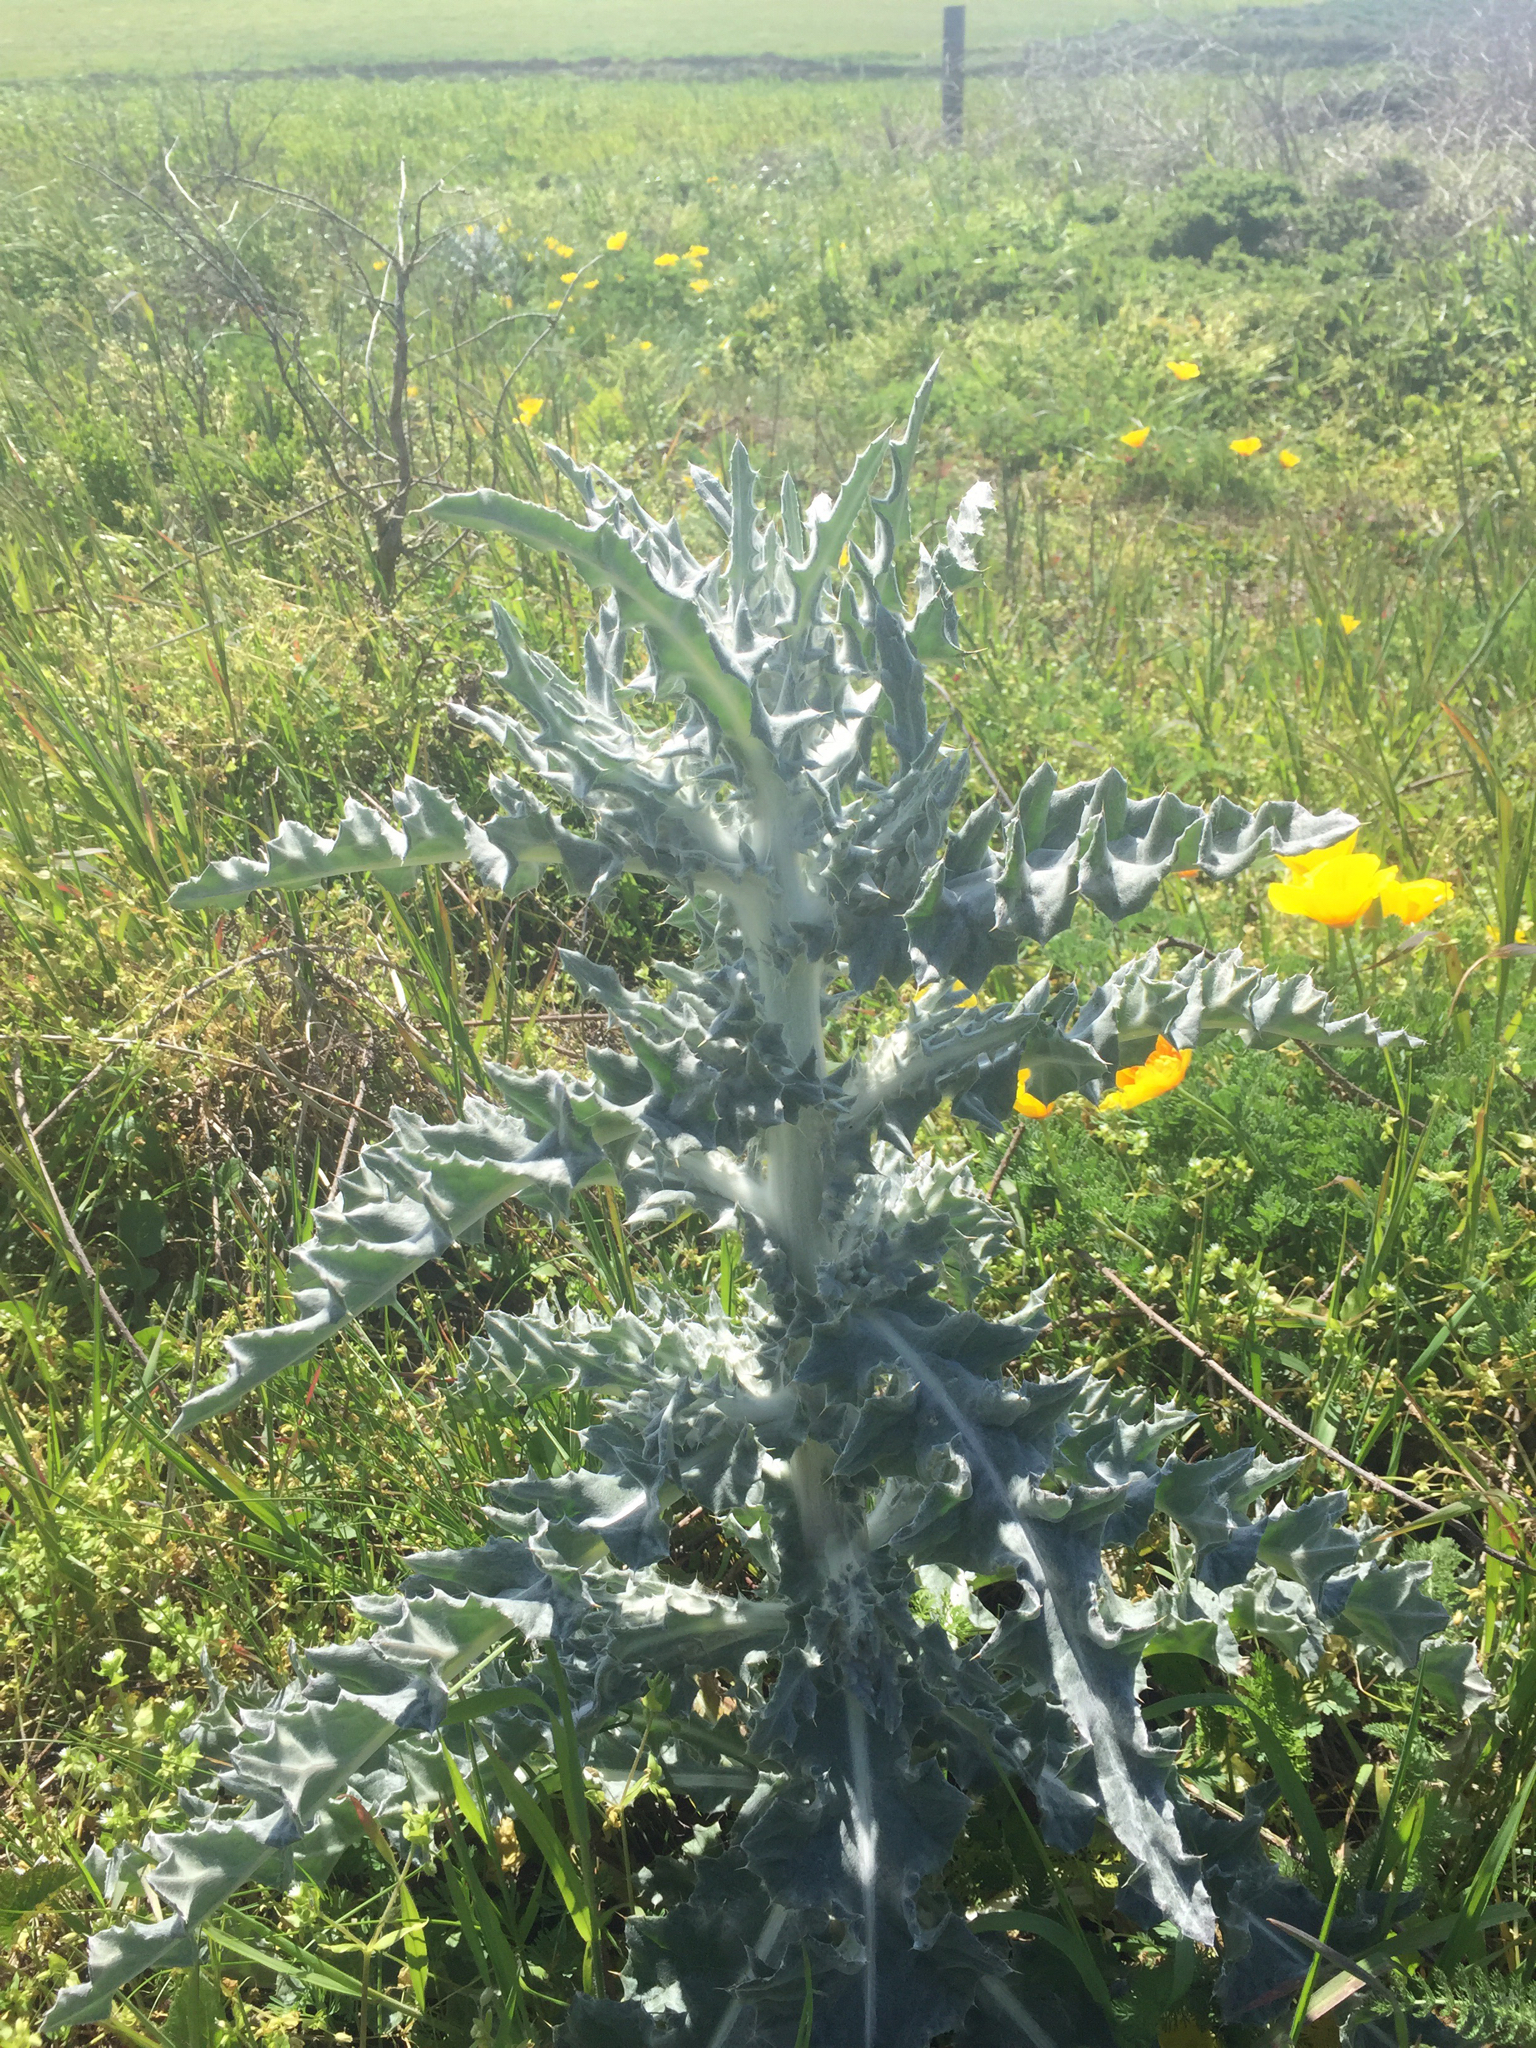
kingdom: Plantae
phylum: Tracheophyta
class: Magnoliopsida
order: Asterales
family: Asteraceae
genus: Cirsium
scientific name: Cirsium occidentale
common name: Western thistle
